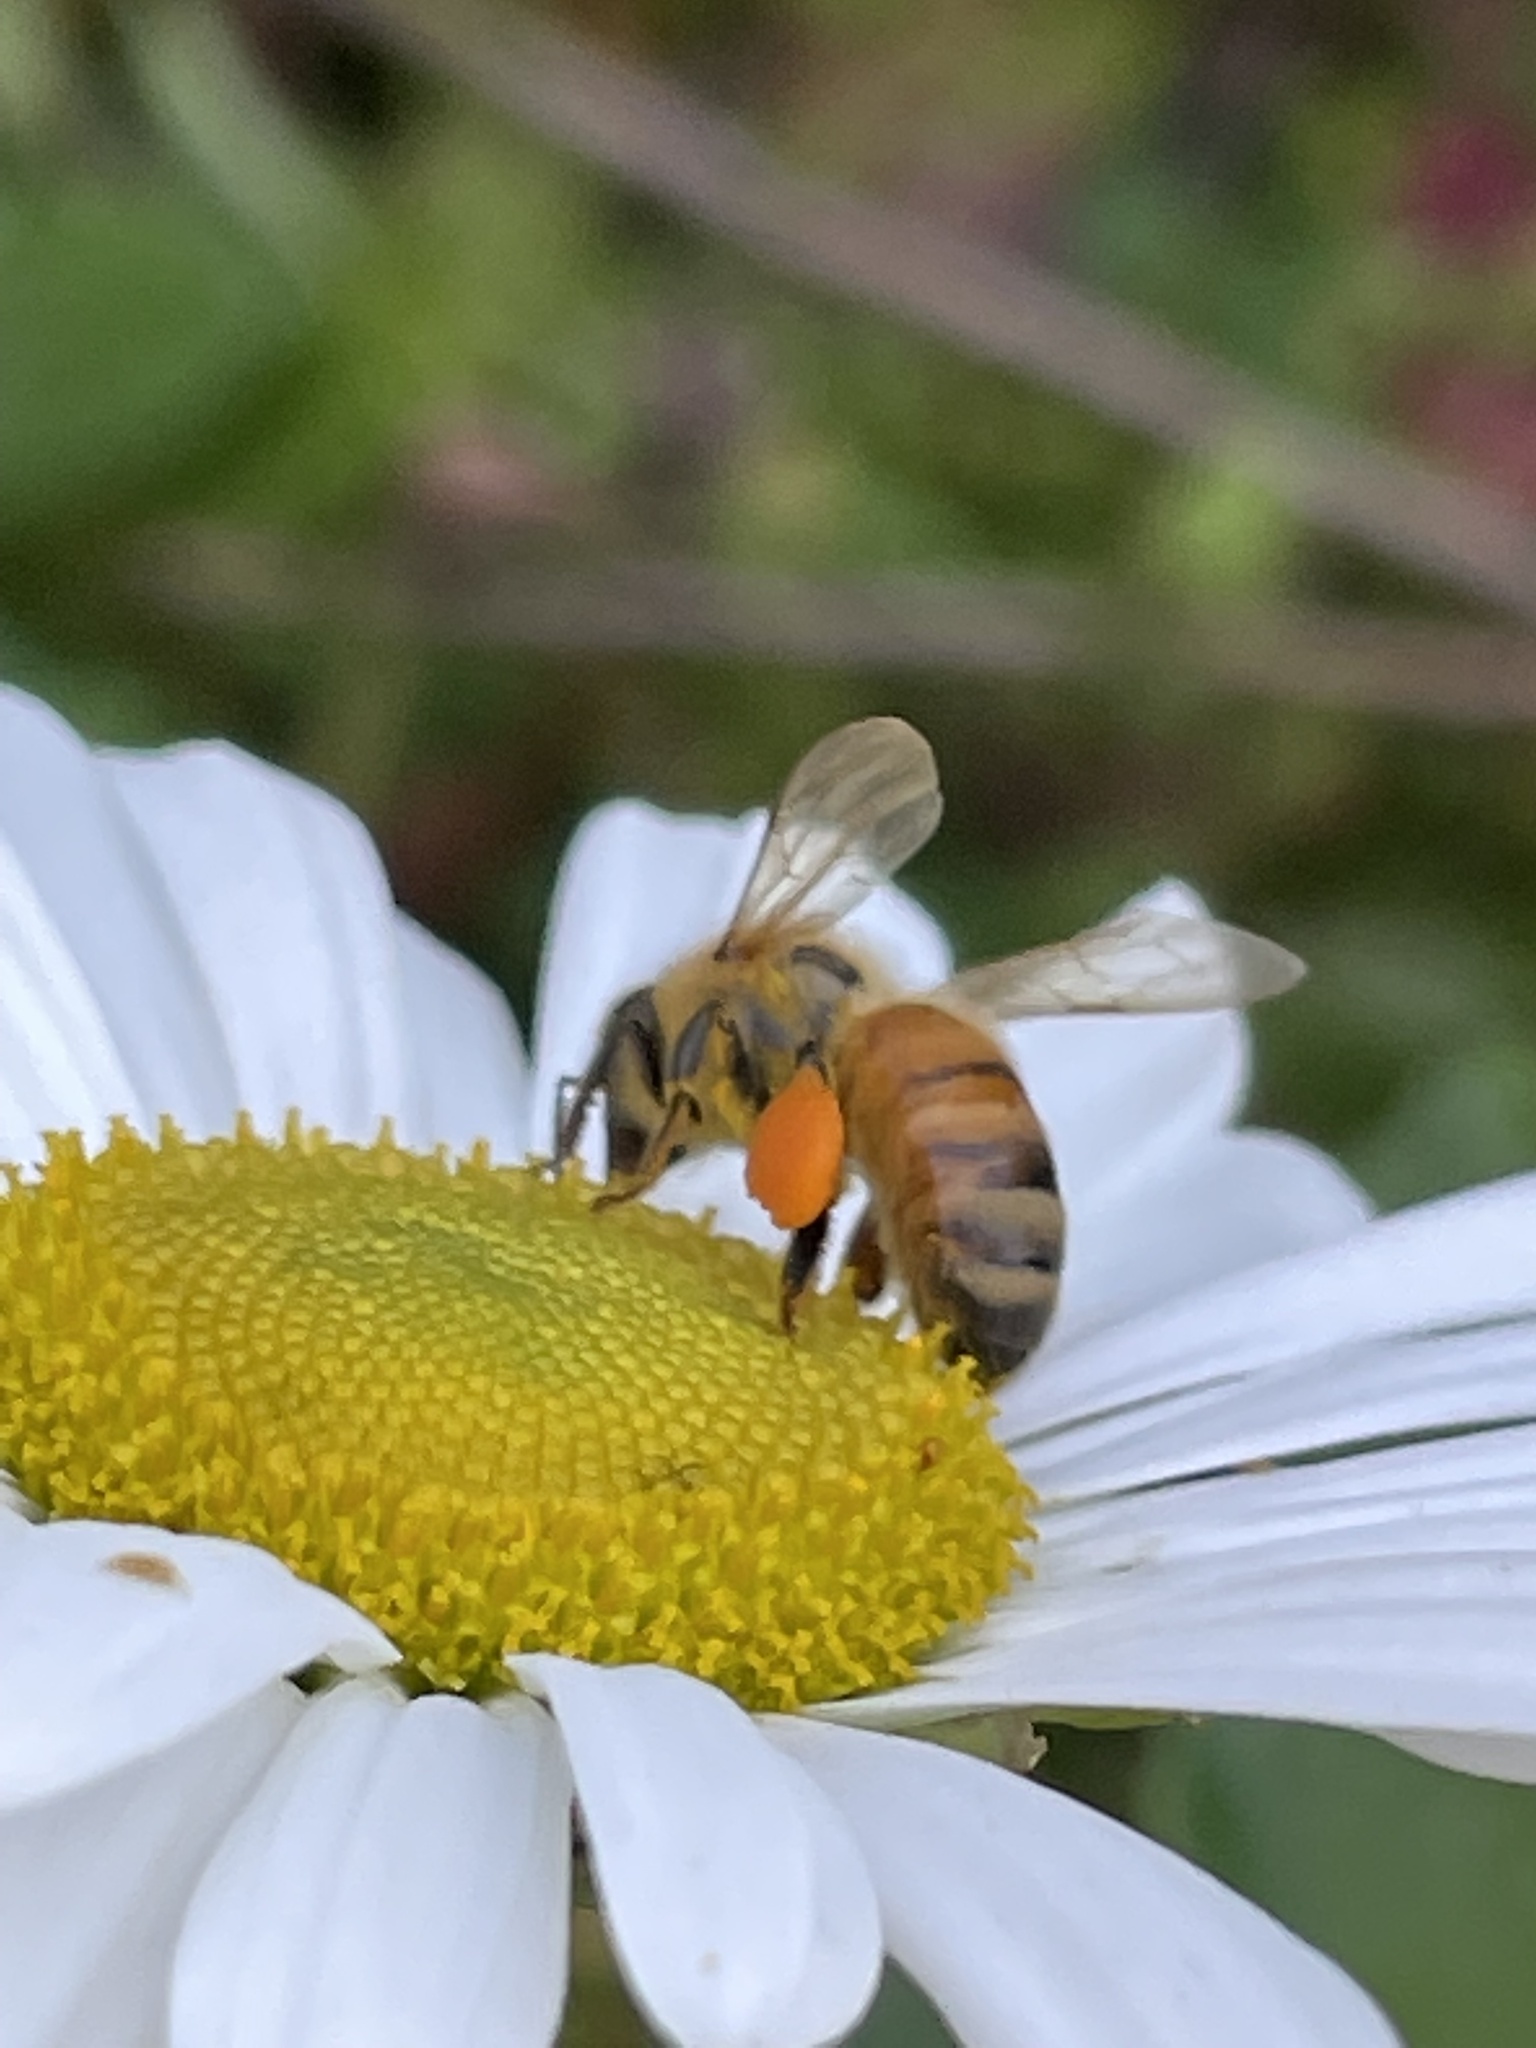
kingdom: Animalia
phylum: Arthropoda
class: Insecta
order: Hymenoptera
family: Apidae
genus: Apis
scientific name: Apis mellifera
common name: Honey bee
